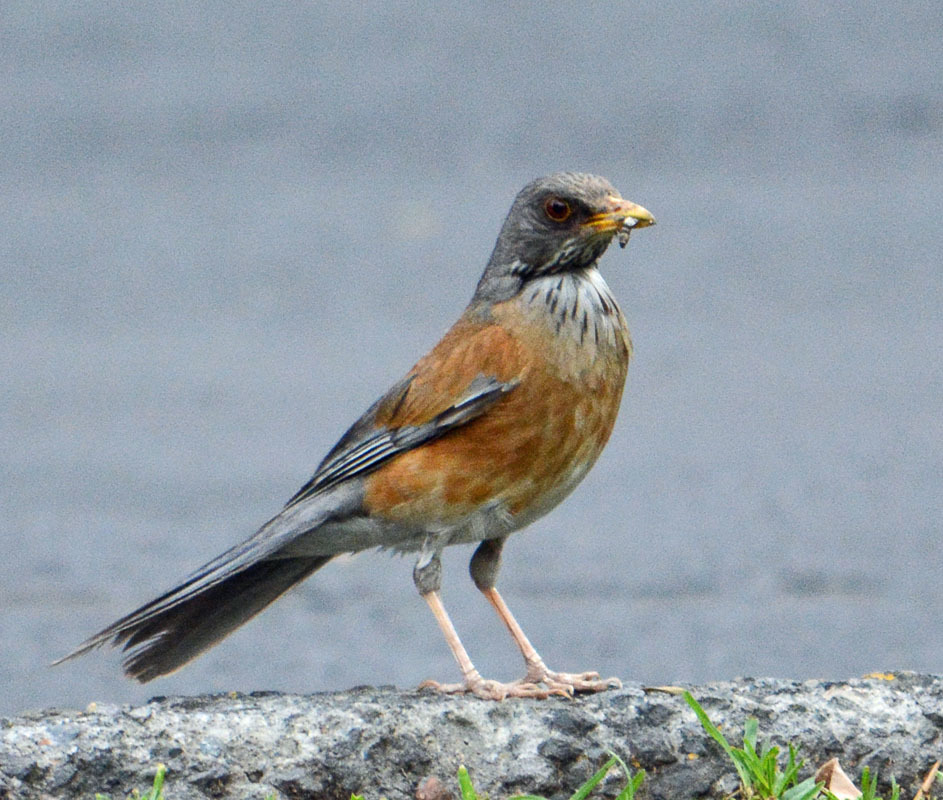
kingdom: Animalia
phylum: Chordata
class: Aves
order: Passeriformes
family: Turdidae
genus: Turdus
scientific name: Turdus rufopalliatus
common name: Rufous-backed robin
